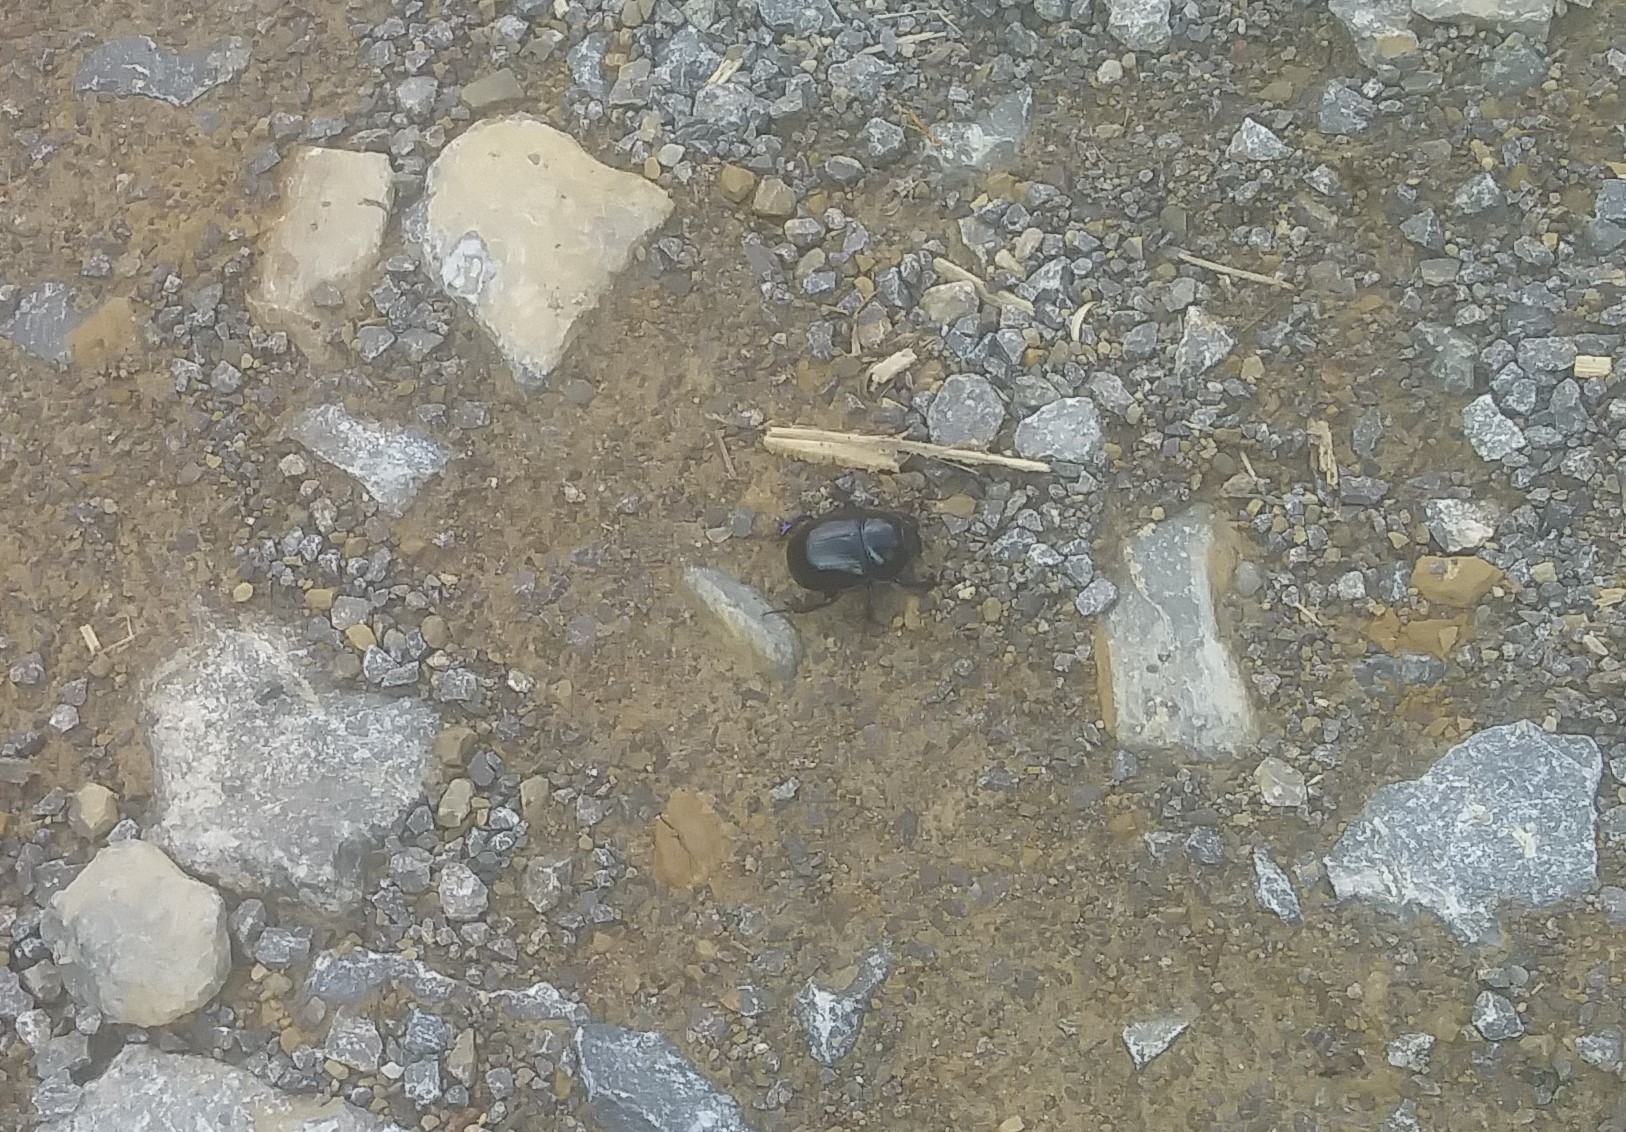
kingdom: Animalia
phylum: Arthropoda
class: Insecta
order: Coleoptera
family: Geotrupidae
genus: Anoplotrupes
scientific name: Anoplotrupes stercorosus
